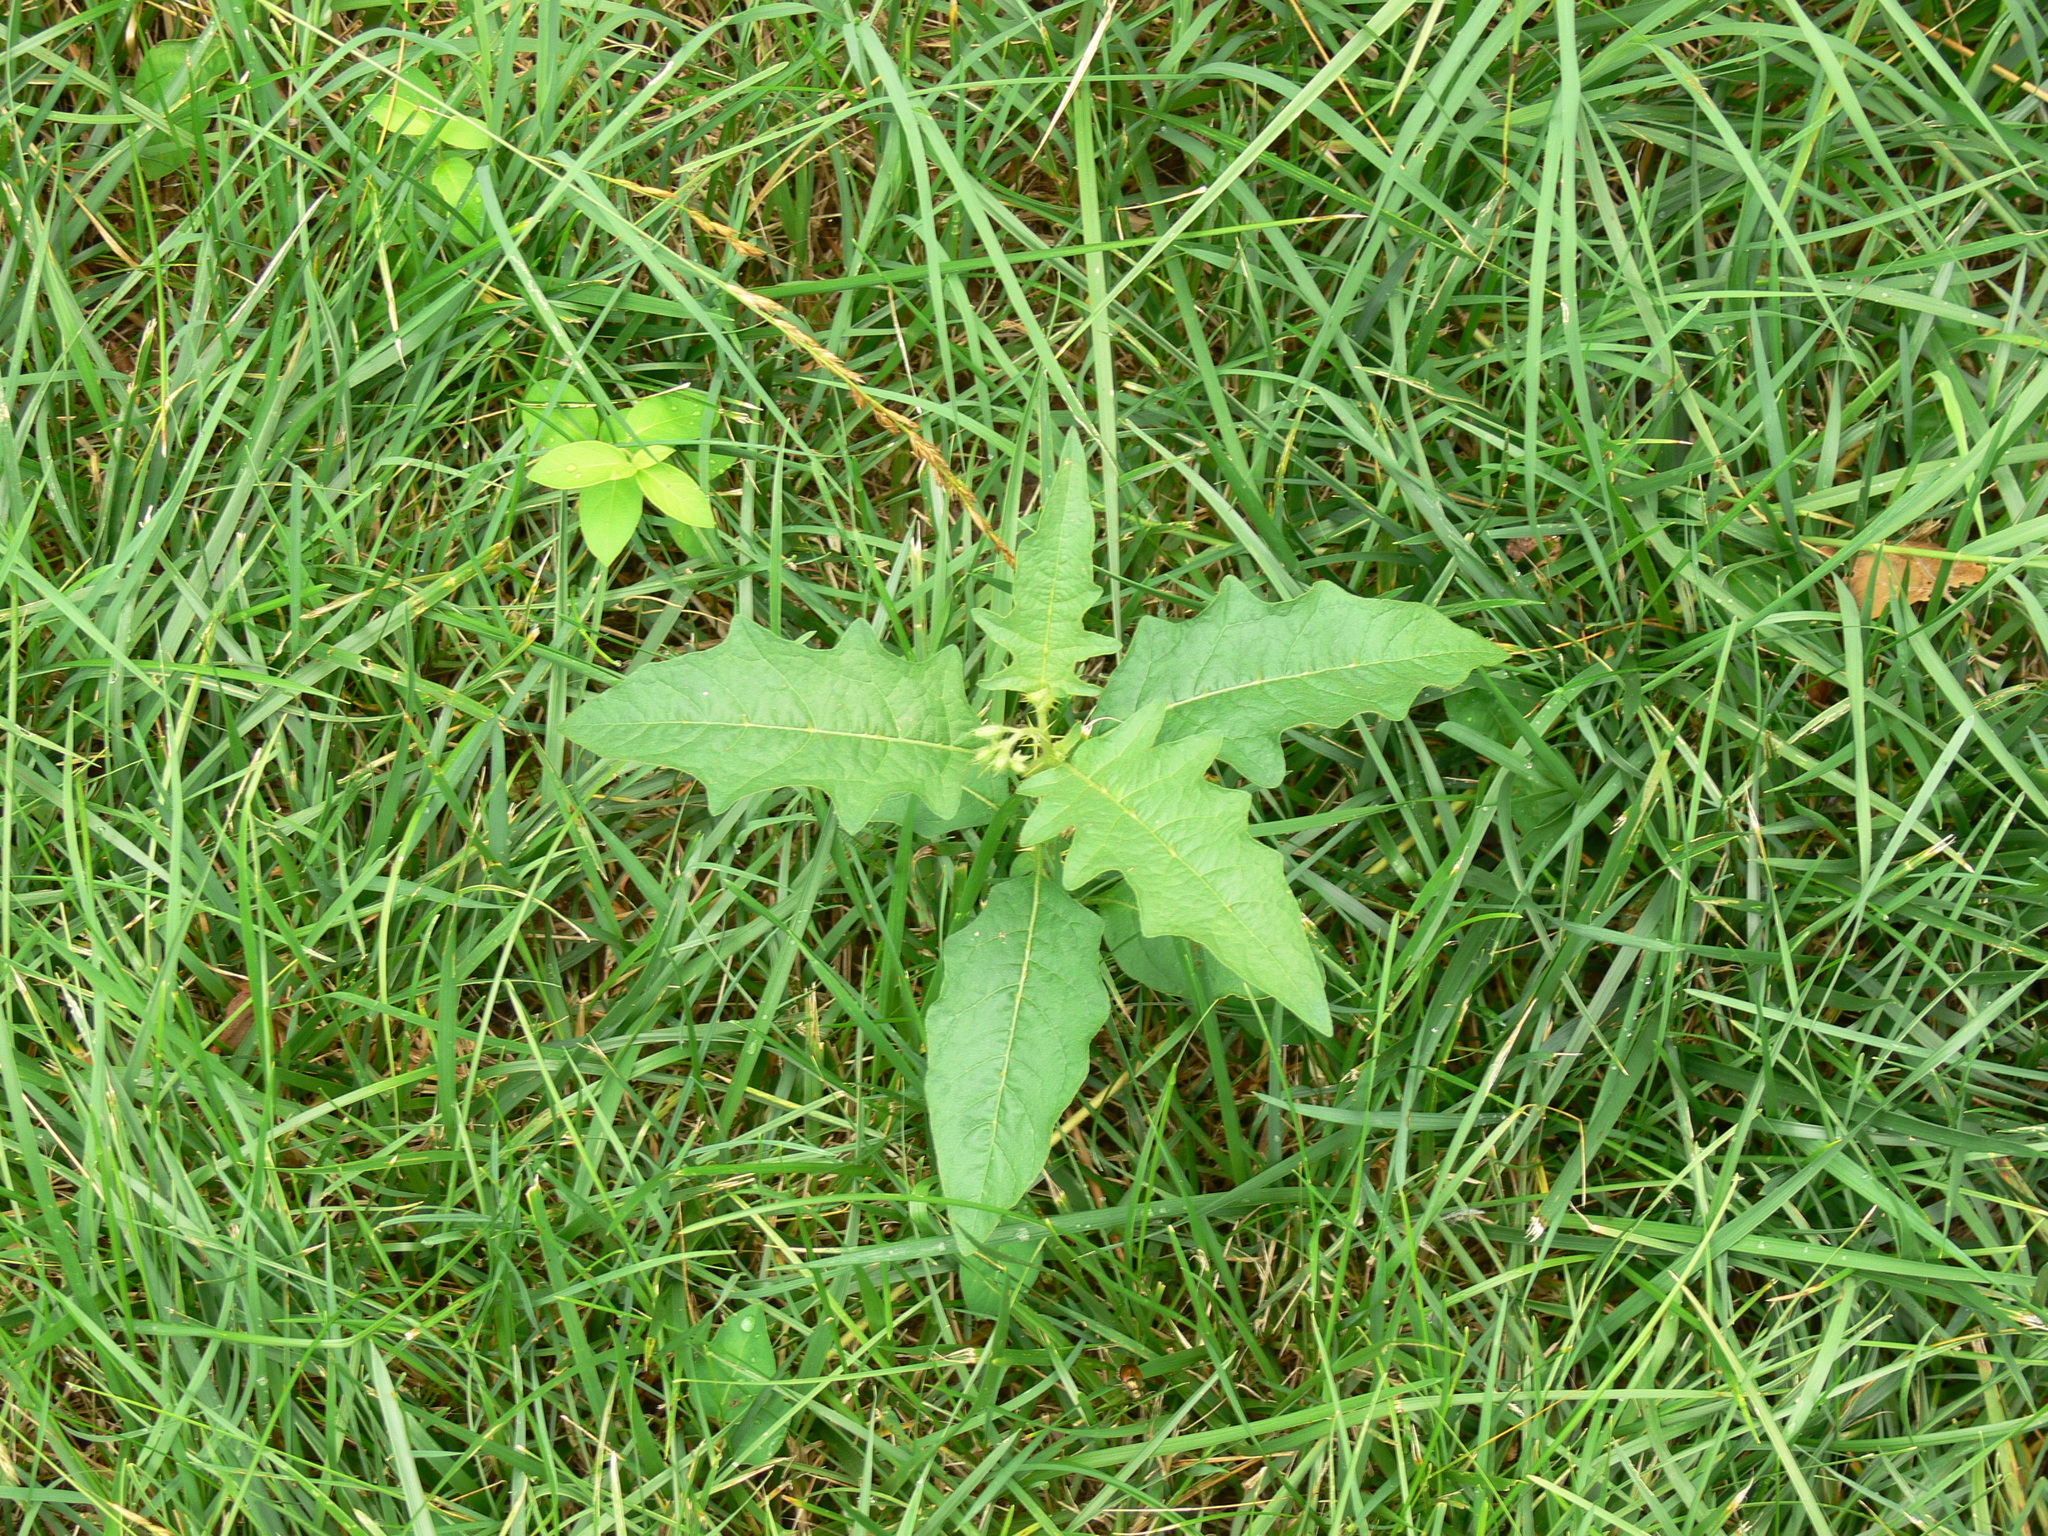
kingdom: Plantae
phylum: Tracheophyta
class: Magnoliopsida
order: Solanales
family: Solanaceae
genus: Solanum
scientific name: Solanum carolinense
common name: Horse-nettle
